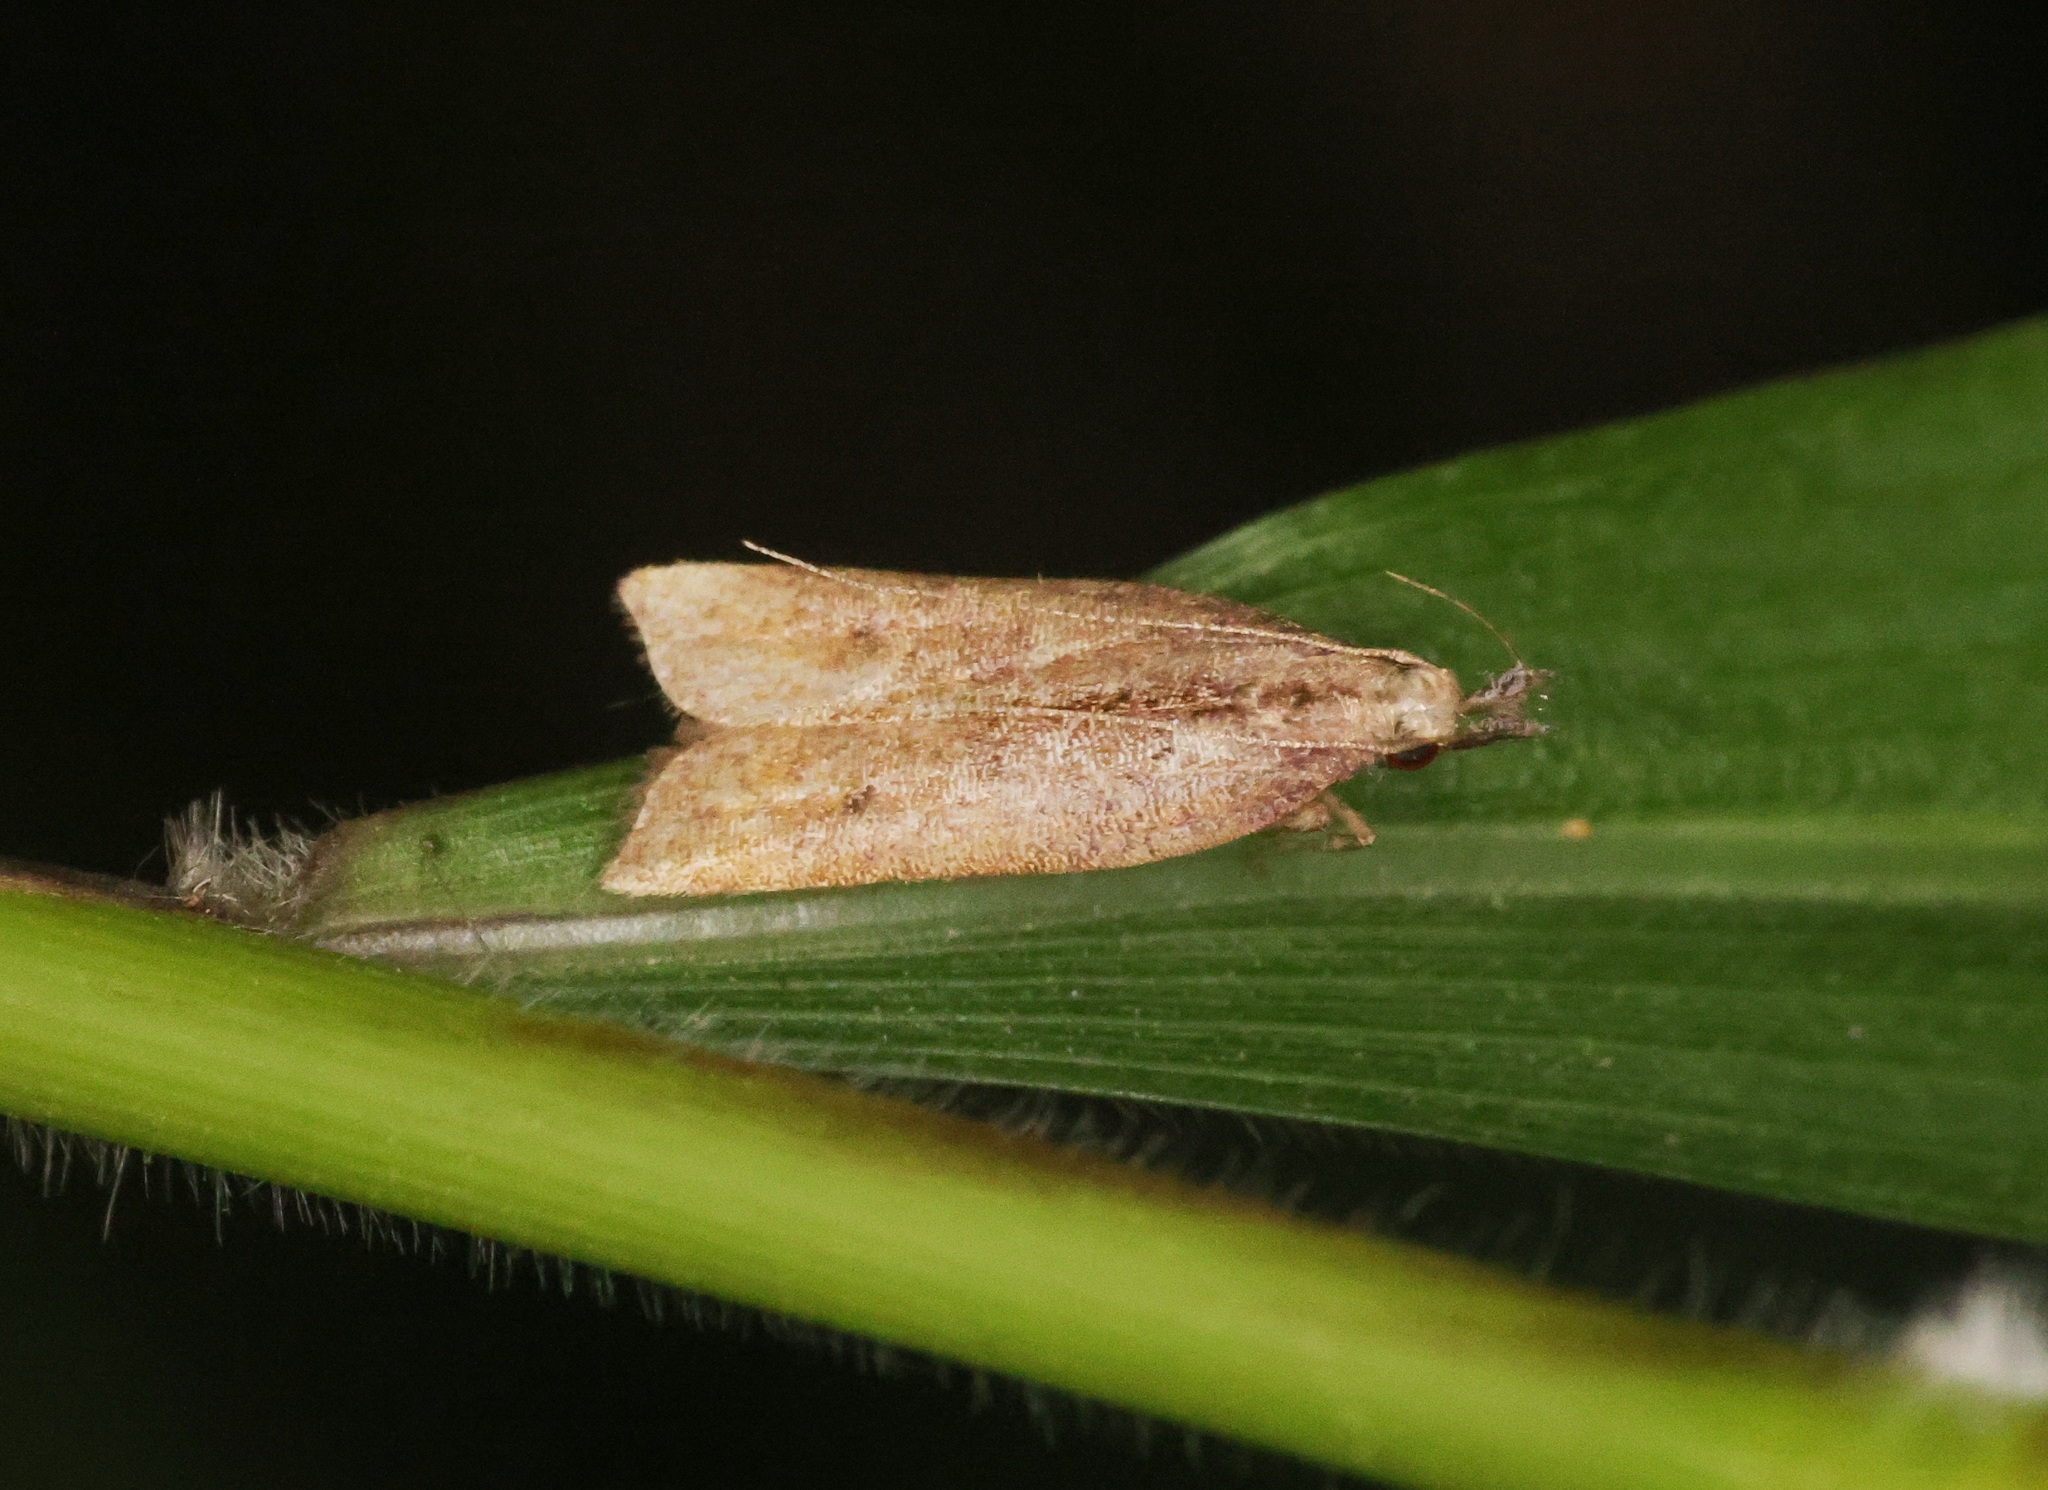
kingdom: Animalia
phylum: Arthropoda
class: Insecta
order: Lepidoptera
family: Gelechiidae
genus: Dichomeris
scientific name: Dichomeris zonata
